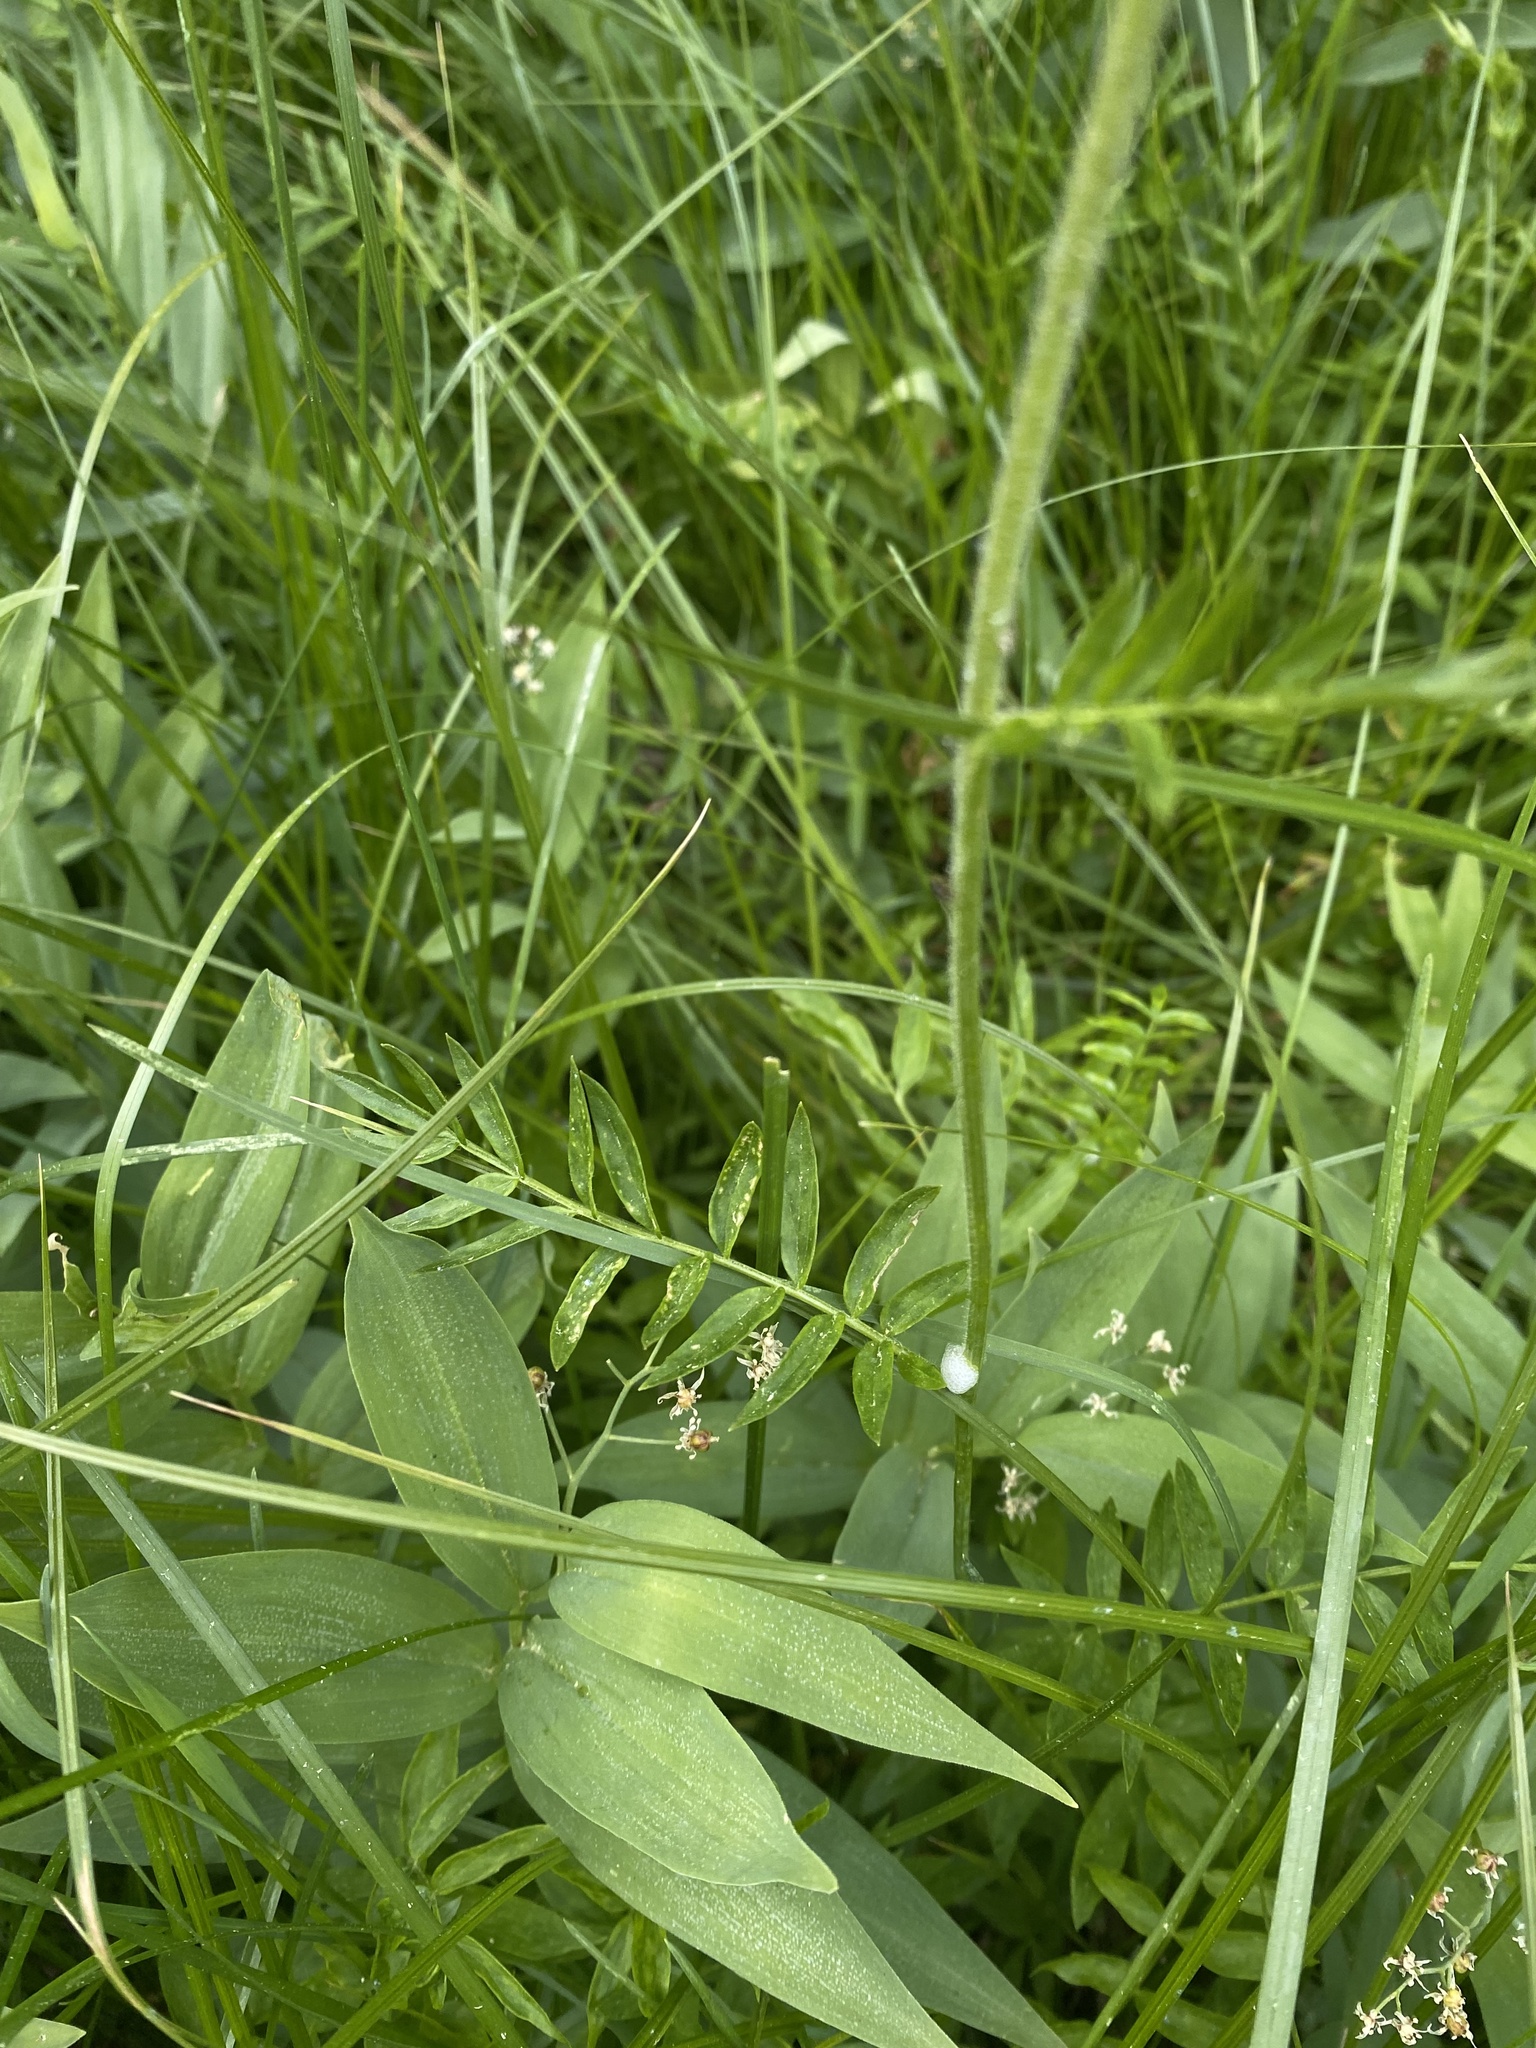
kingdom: Plantae
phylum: Tracheophyta
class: Magnoliopsida
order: Ericales
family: Polemoniaceae
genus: Polemonium
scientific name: Polemonium occidentale
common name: Western jacob's-ladder
